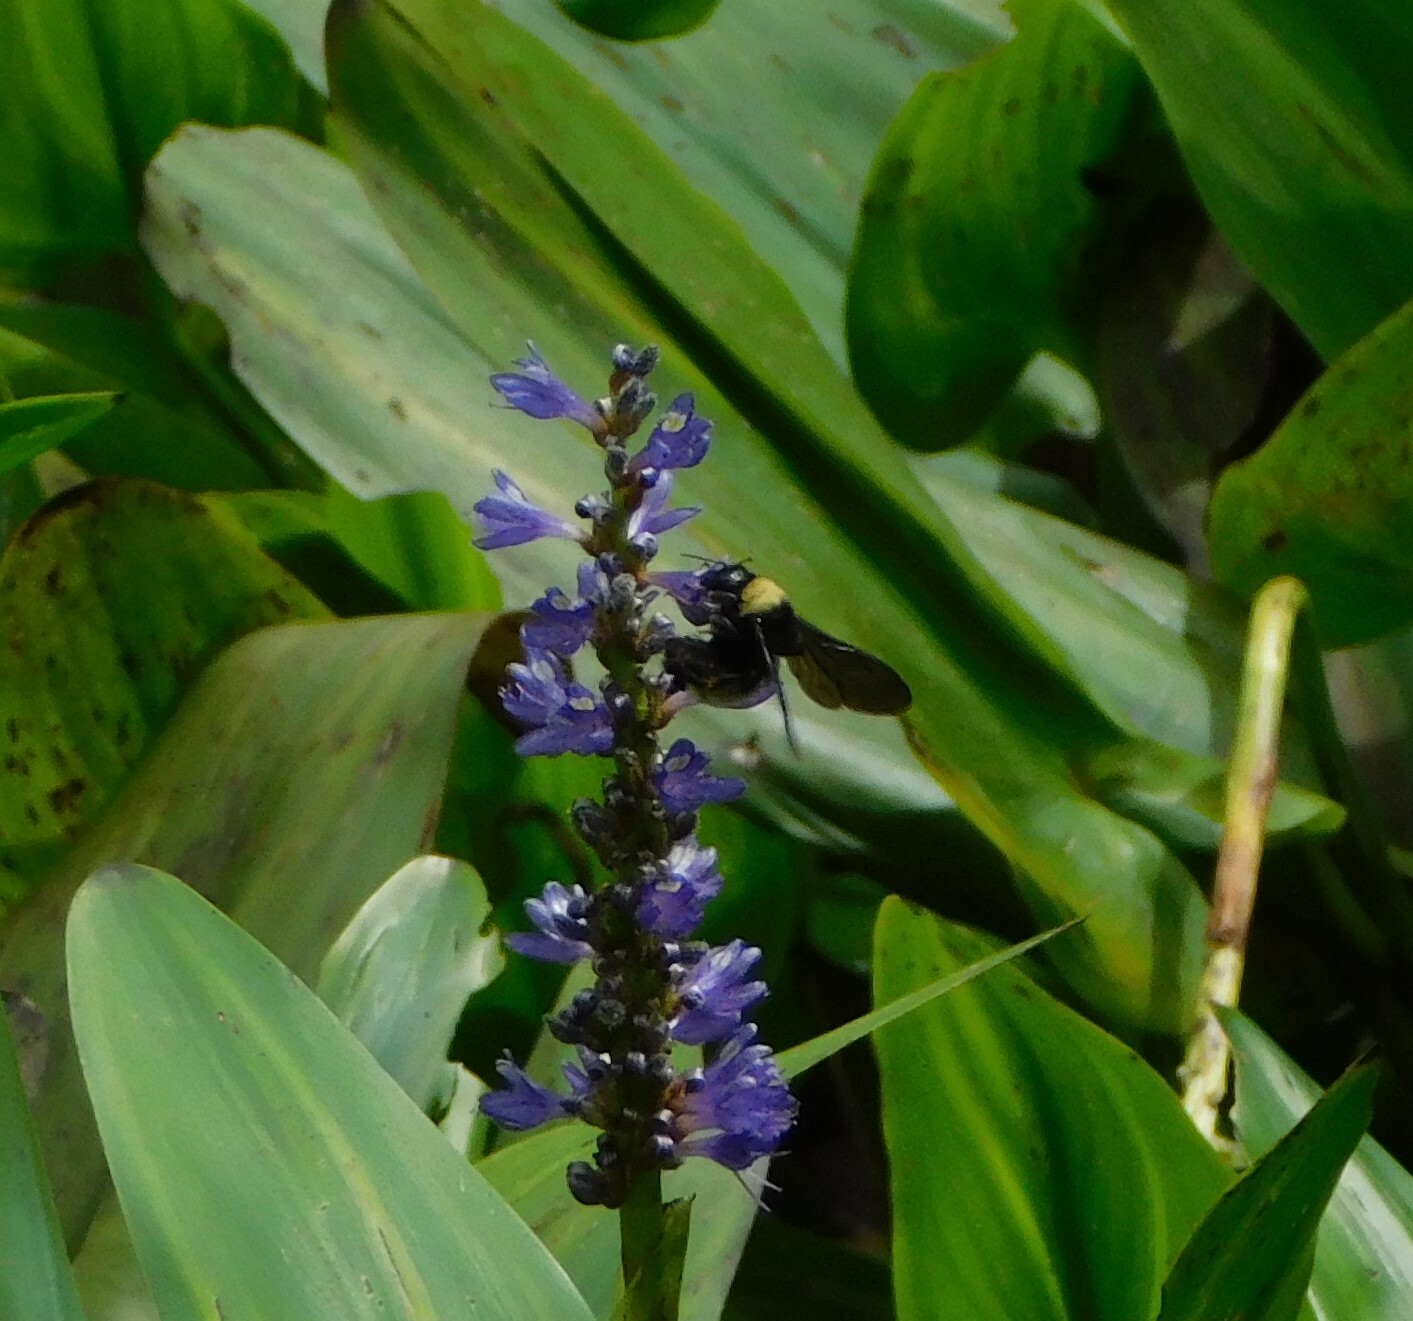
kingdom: Animalia
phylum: Arthropoda
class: Insecta
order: Hymenoptera
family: Apidae
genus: Bombus
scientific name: Bombus pensylvanicus
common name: Bumble bee
